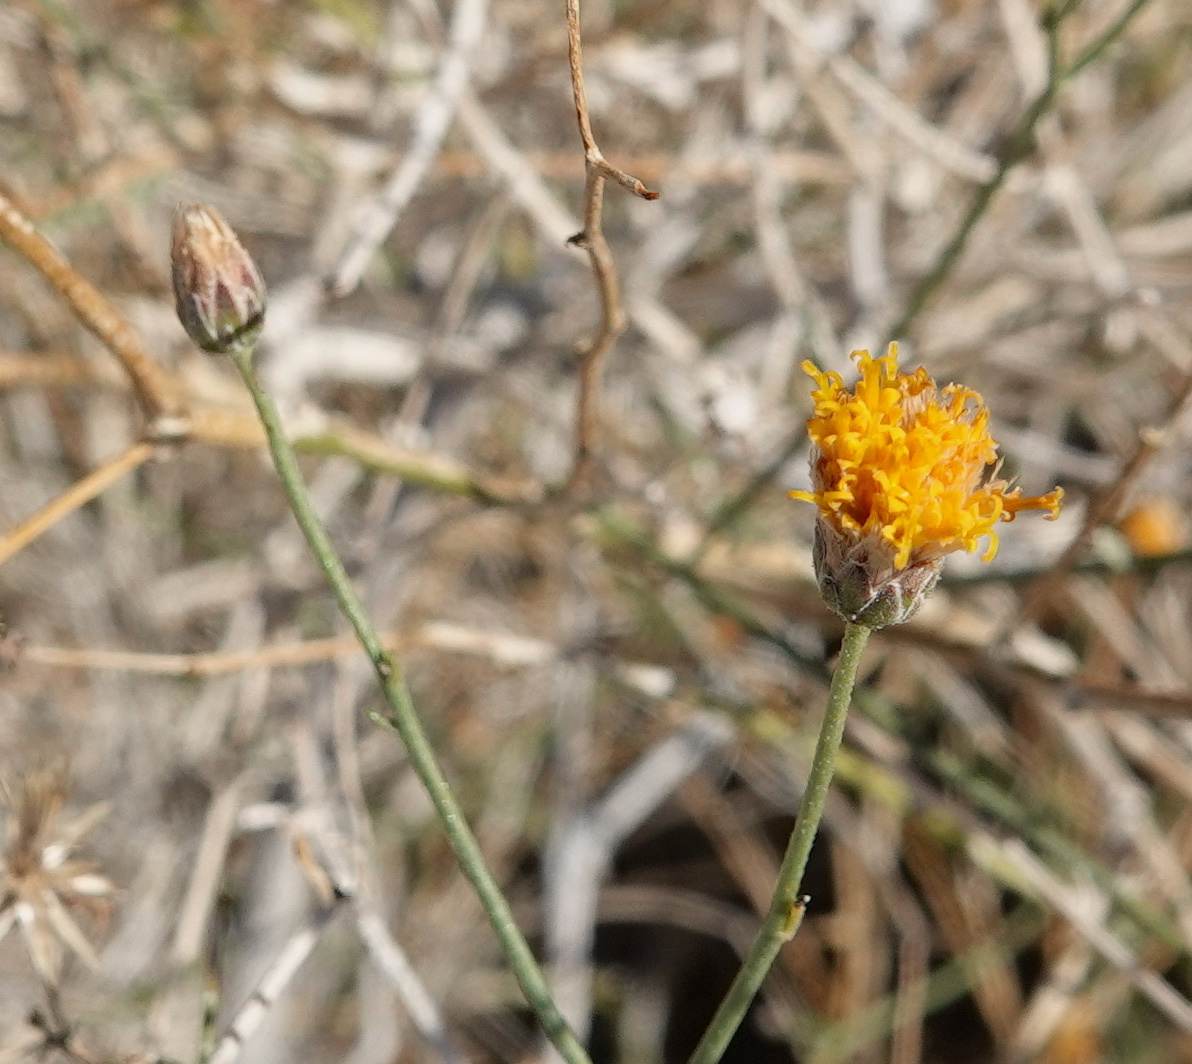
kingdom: Plantae
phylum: Tracheophyta
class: Magnoliopsida
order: Asterales
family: Asteraceae
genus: Bebbia
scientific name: Bebbia juncea
